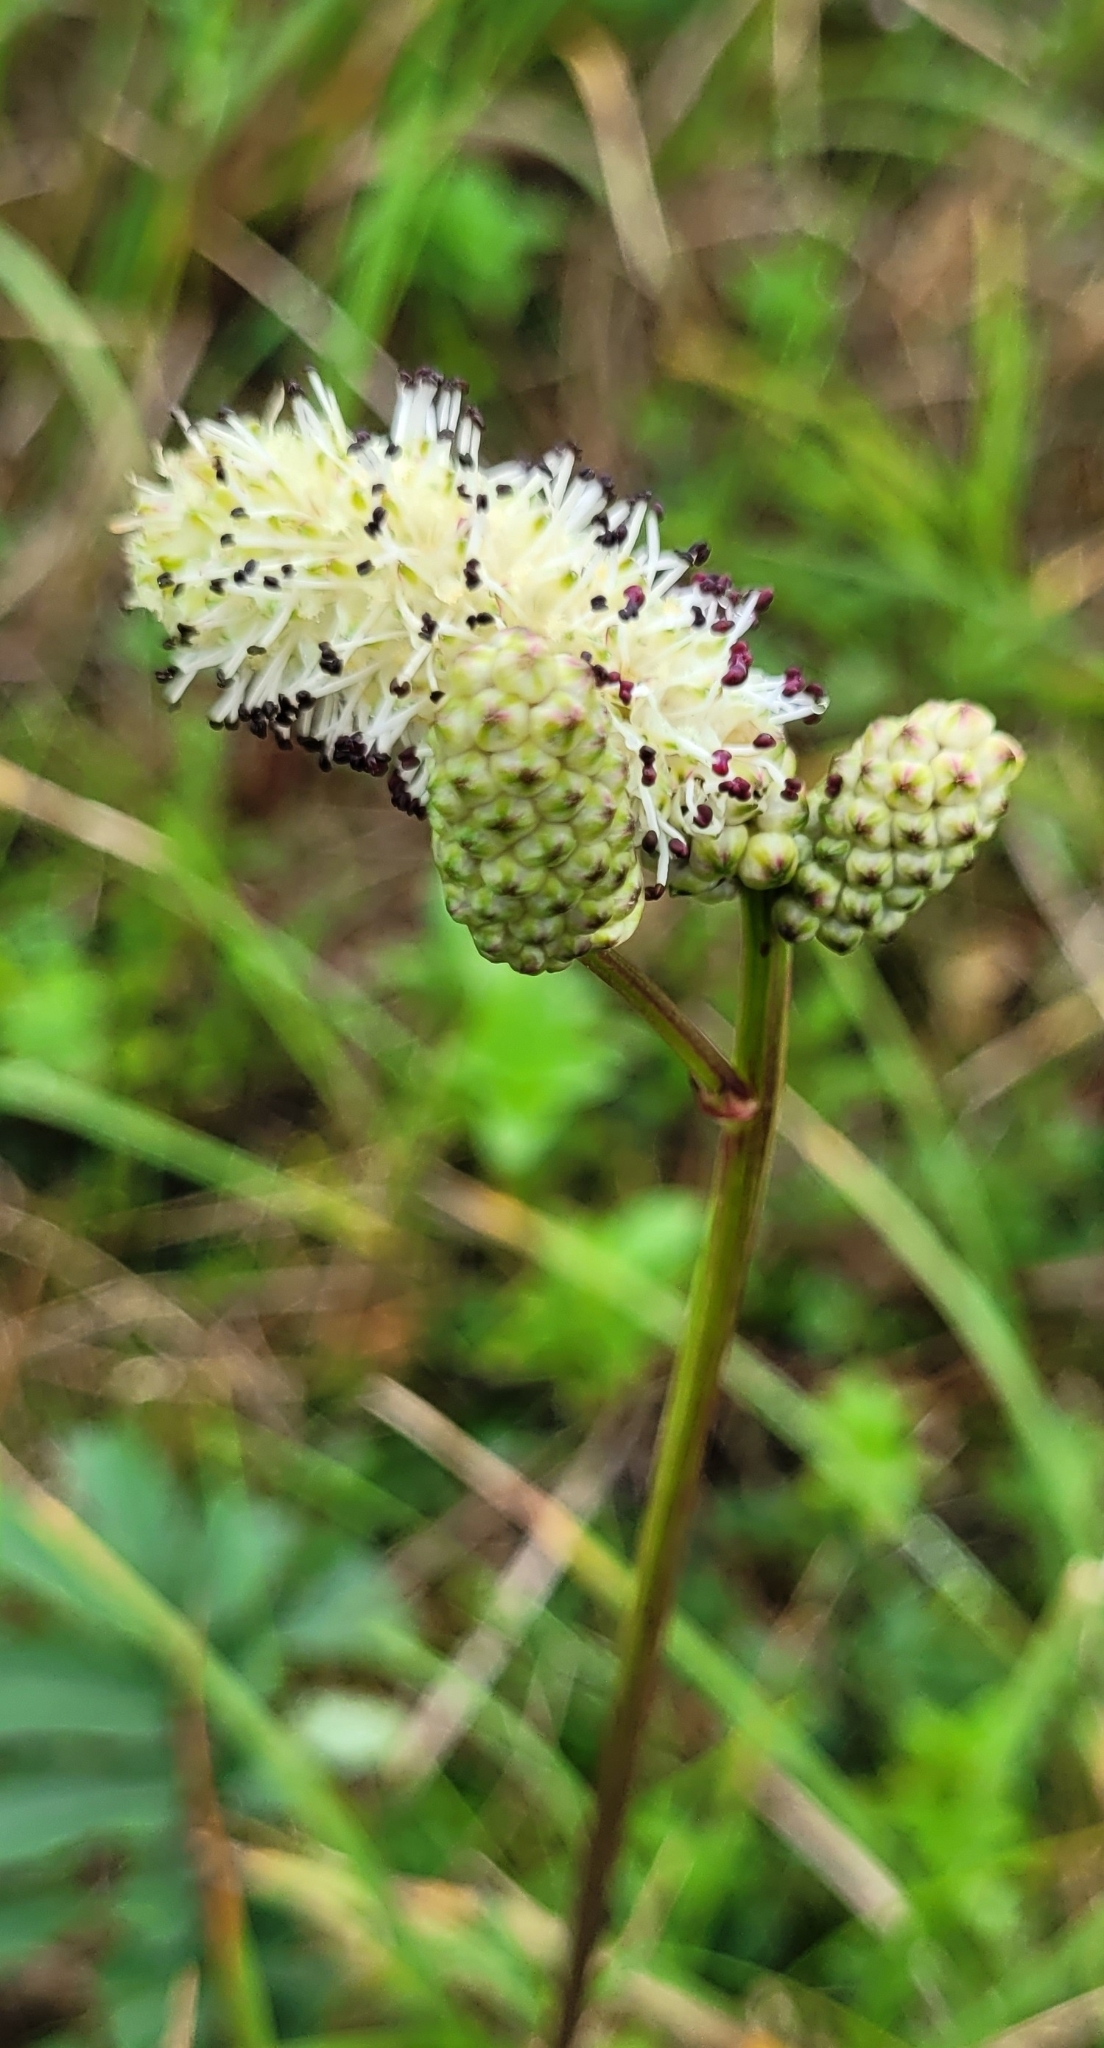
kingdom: Plantae
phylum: Tracheophyta
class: Magnoliopsida
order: Rosales
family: Rosaceae
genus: Poterium
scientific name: Poterium tenuifolium
